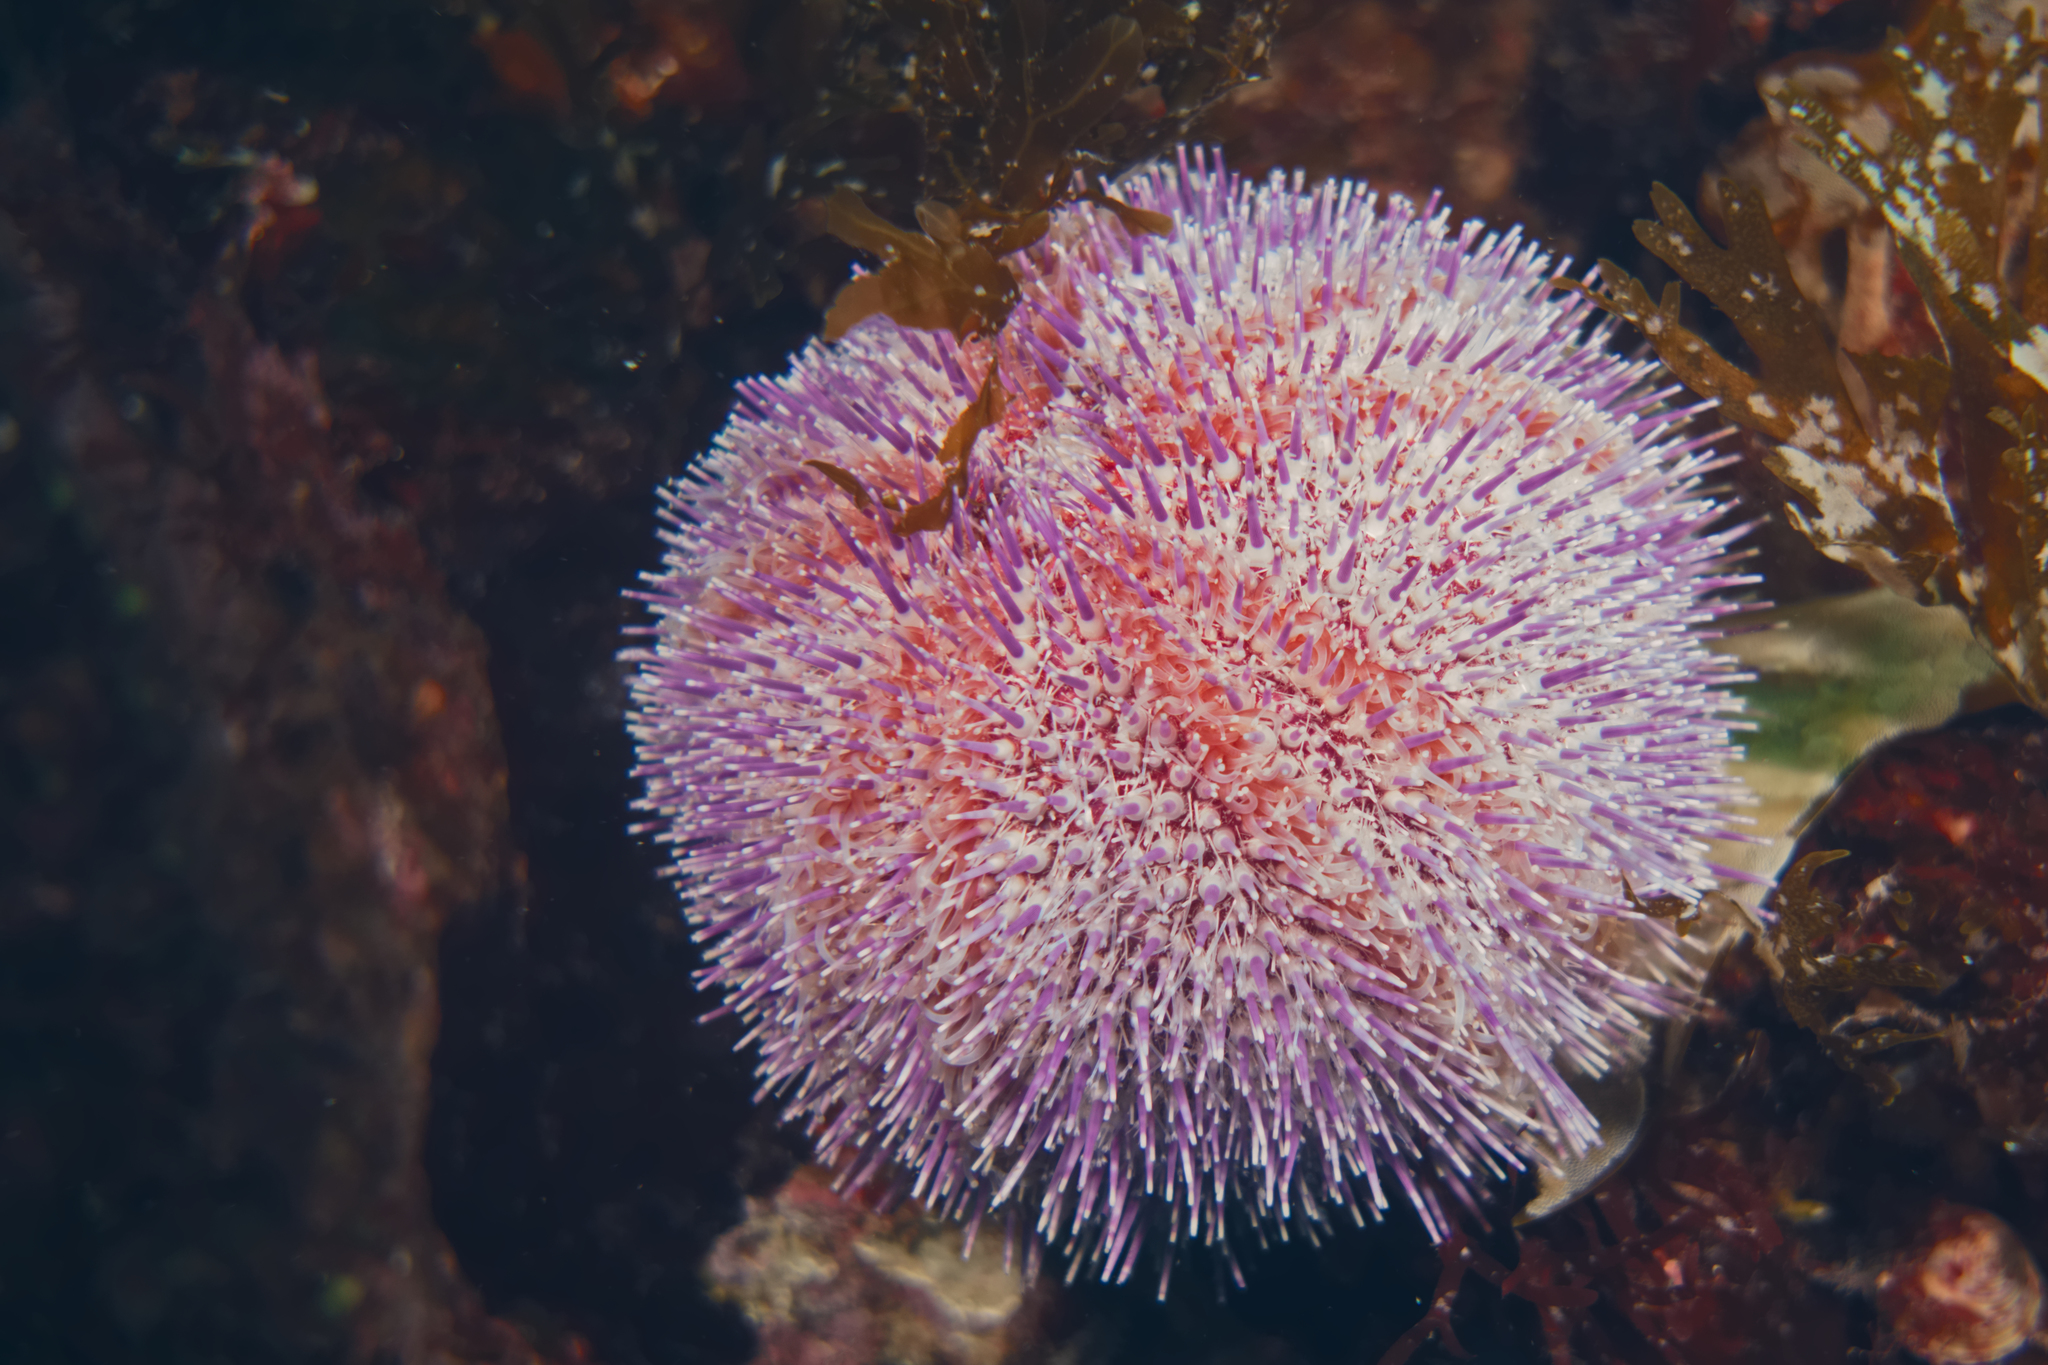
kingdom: Animalia
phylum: Echinodermata
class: Echinoidea
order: Camarodonta
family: Echinidae
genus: Echinus
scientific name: Echinus esculentus
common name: Edible sea urchin
